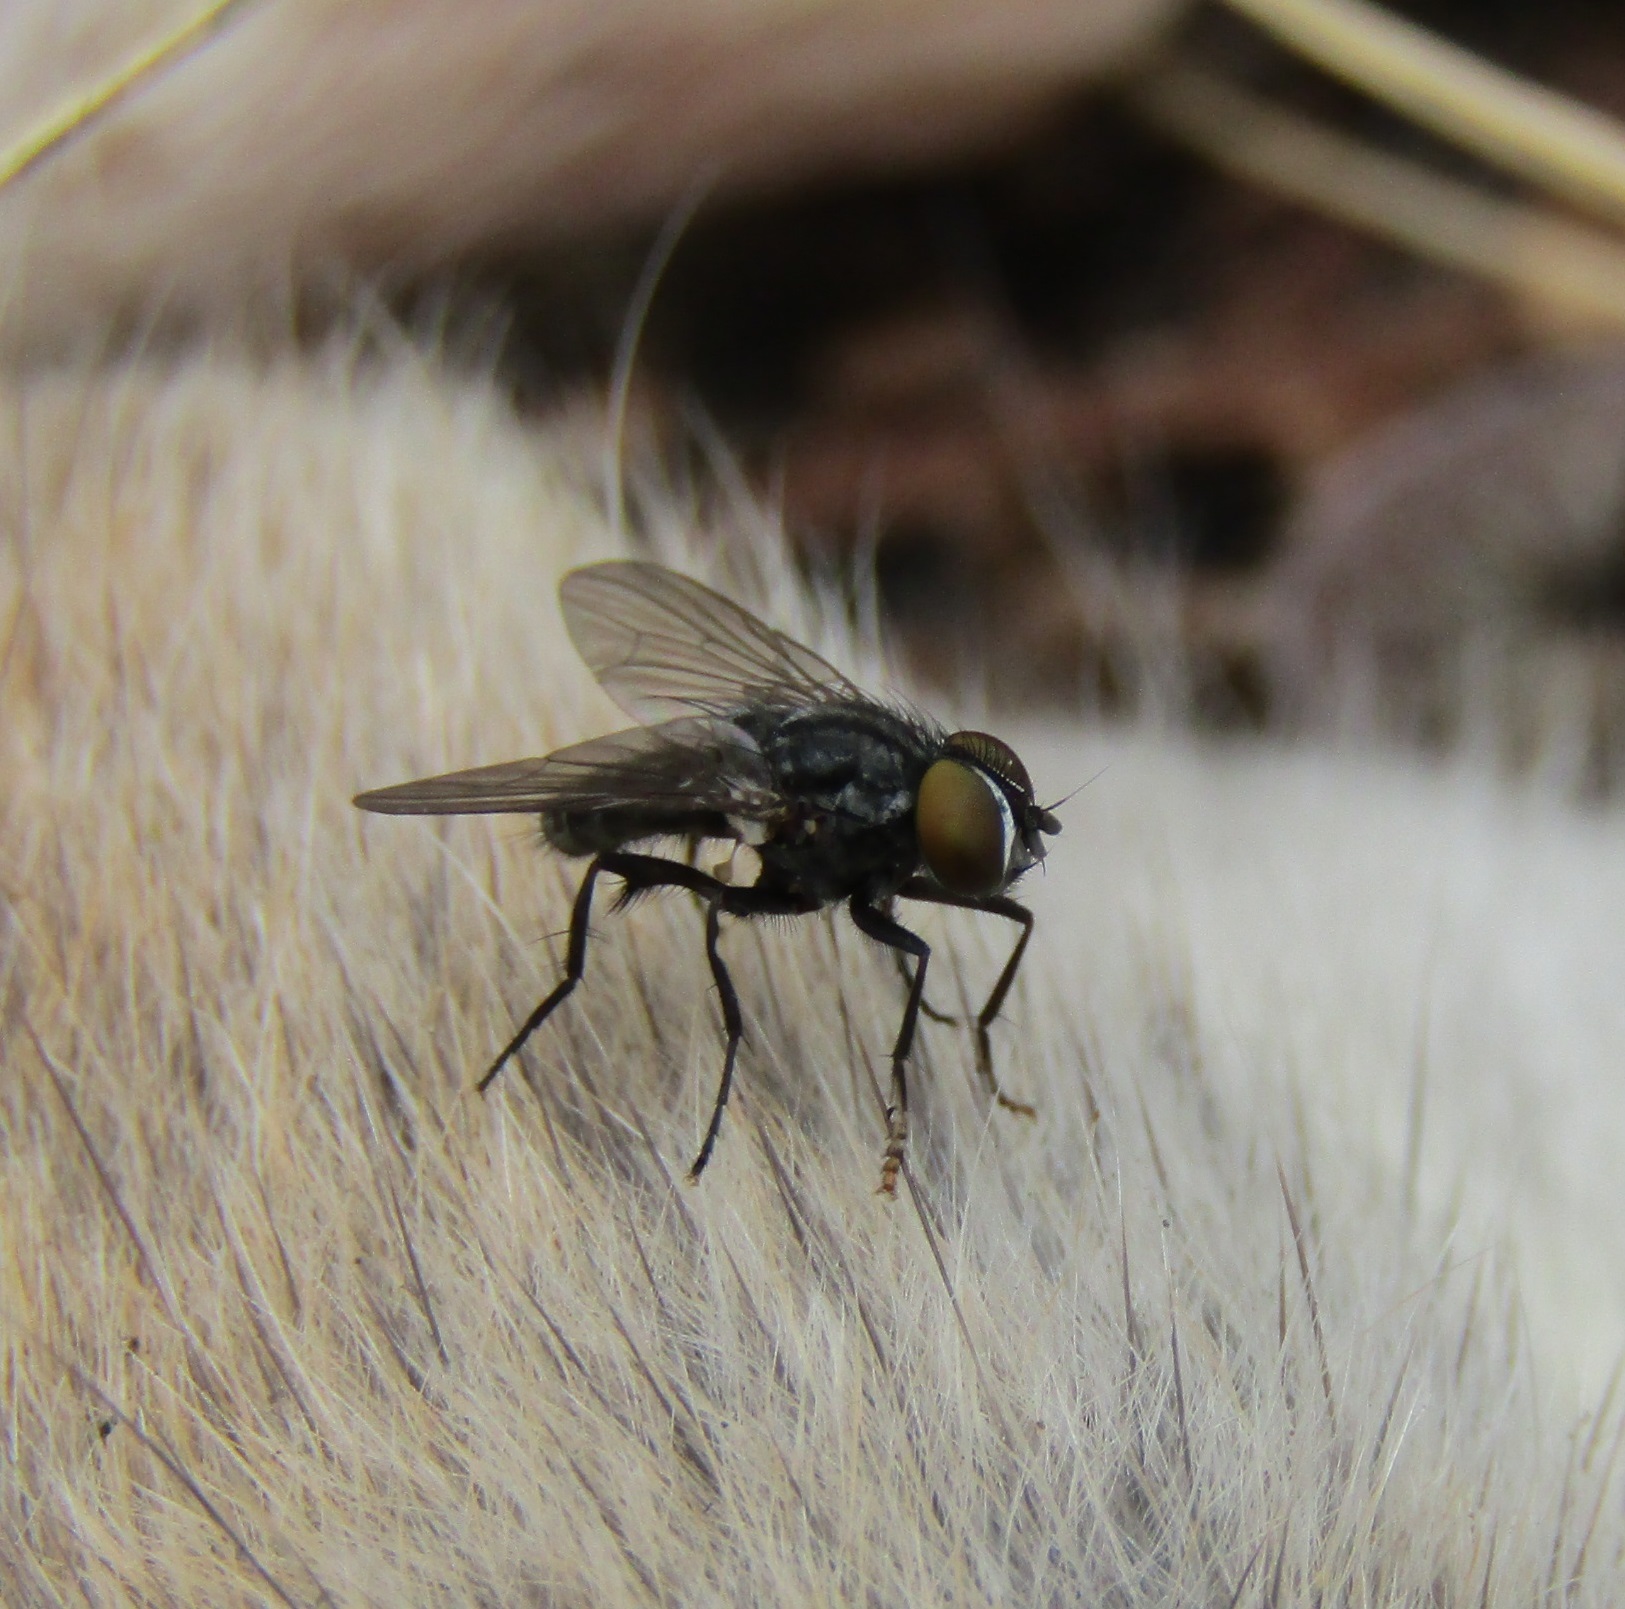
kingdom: Animalia
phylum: Arthropoda
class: Insecta
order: Diptera
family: Fanniidae
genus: Fannia
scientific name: Fannia albitarsis
